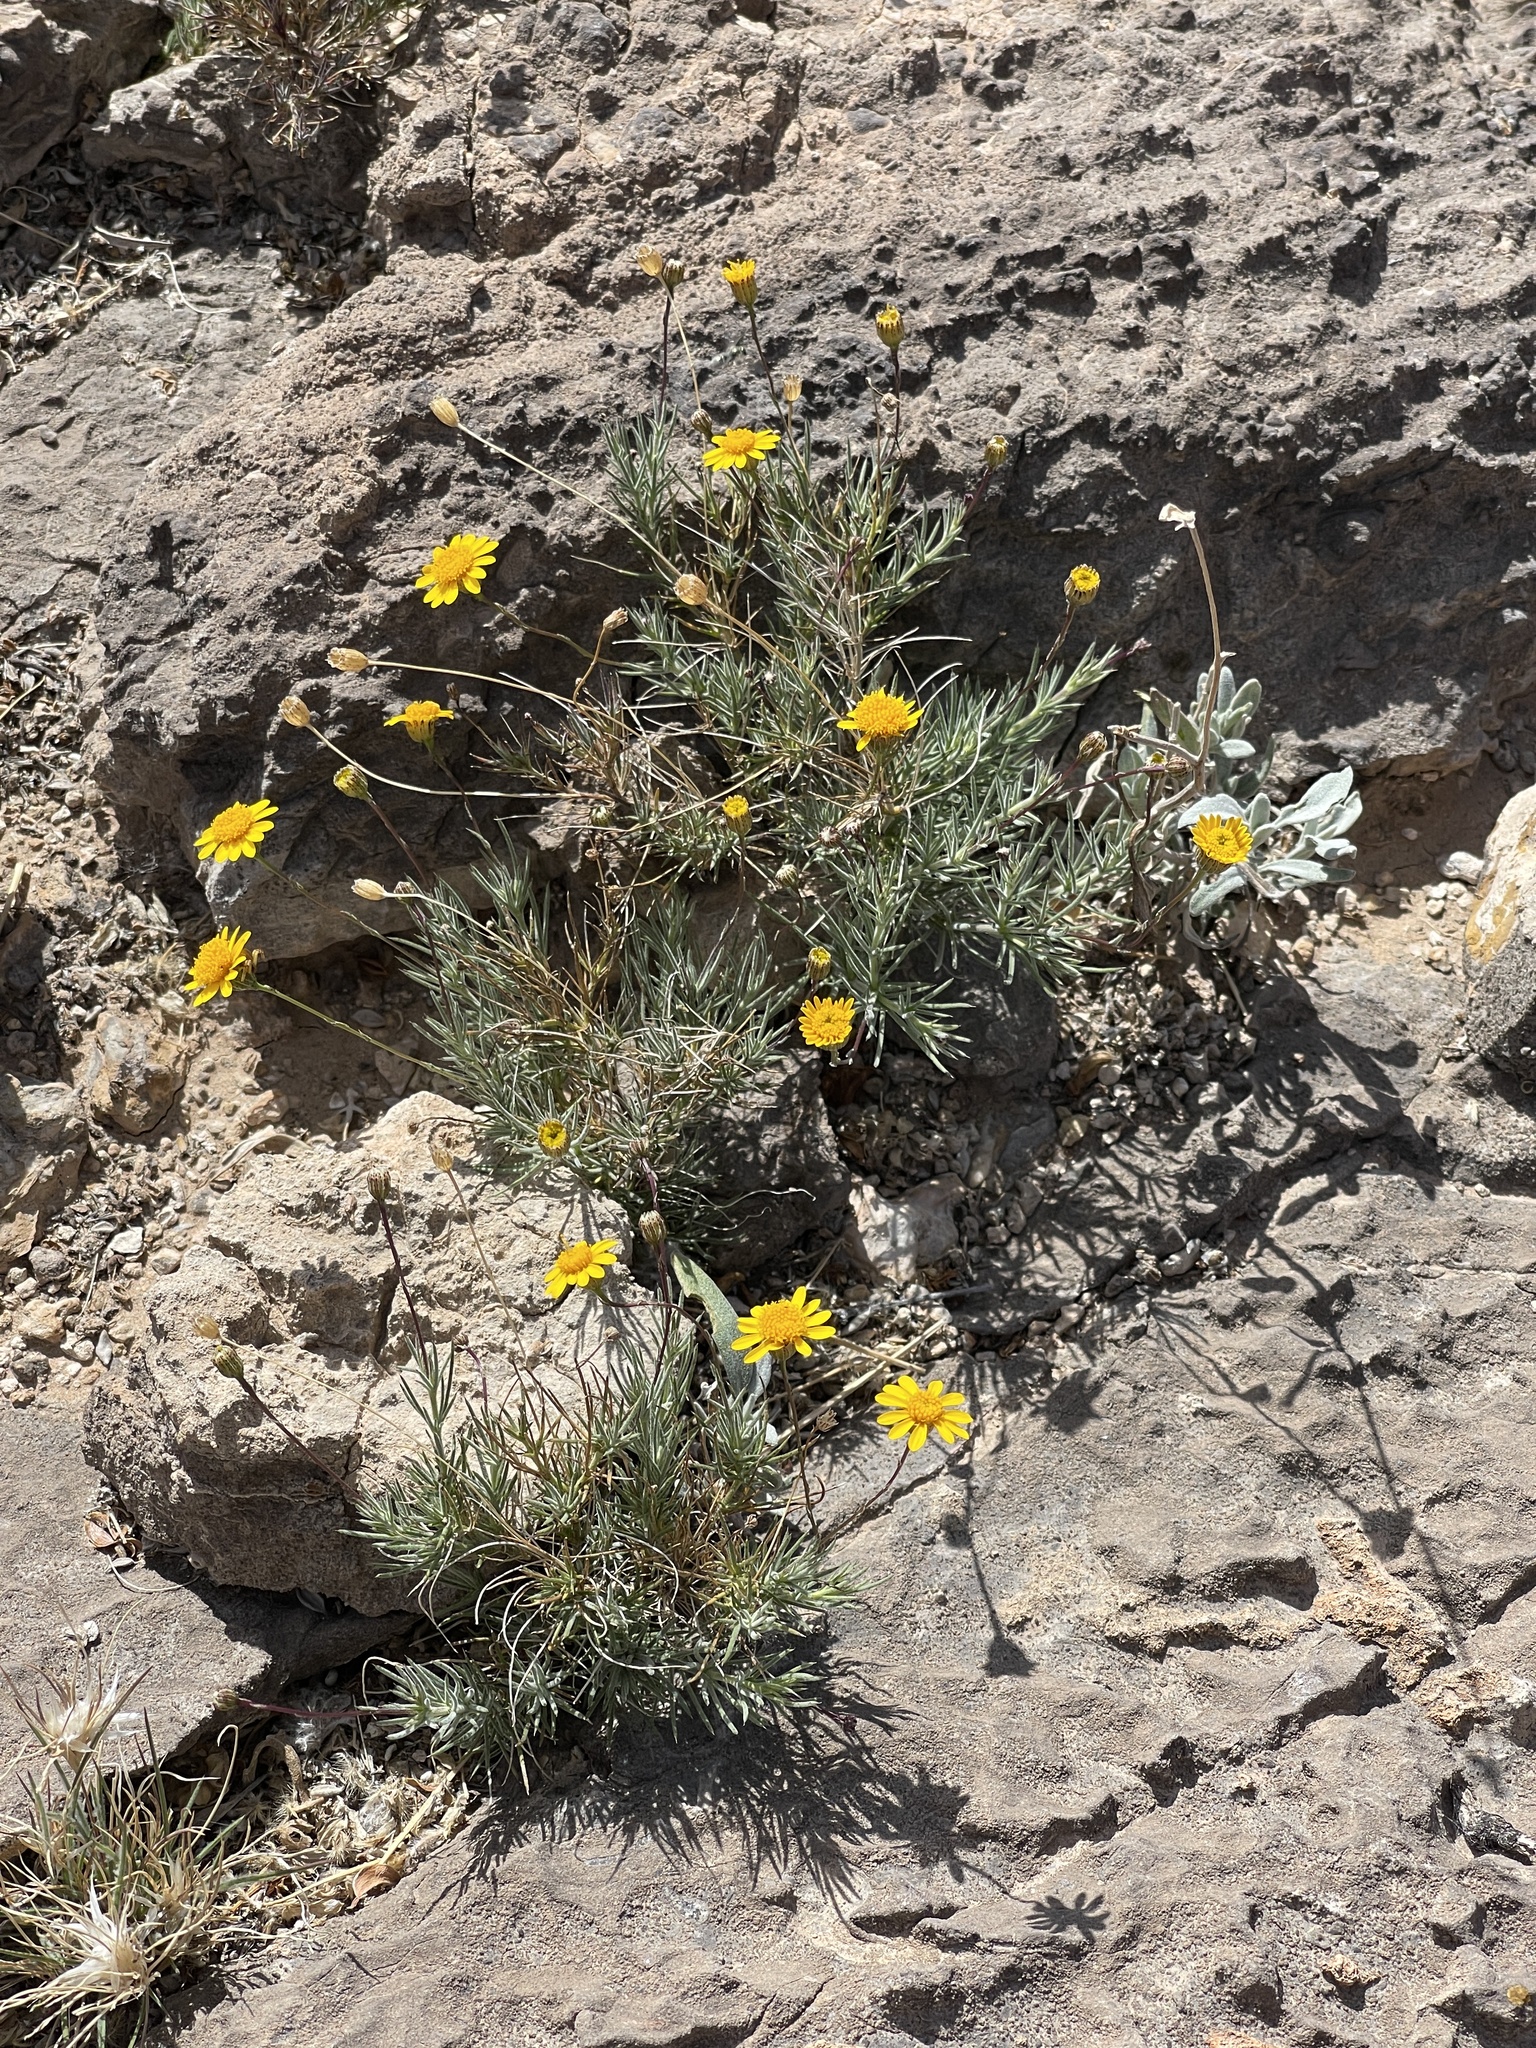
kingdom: Plantae
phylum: Tracheophyta
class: Magnoliopsida
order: Asterales
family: Asteraceae
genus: Thymophylla
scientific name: Thymophylla pentachaeta
